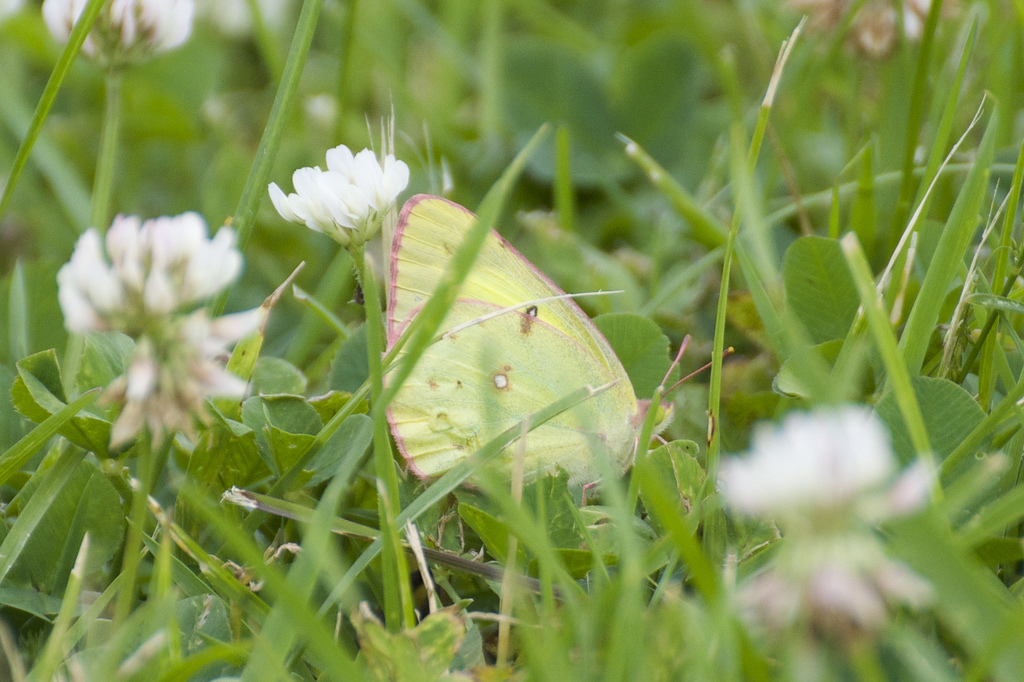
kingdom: Animalia
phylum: Arthropoda
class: Insecta
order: Lepidoptera
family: Pieridae
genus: Colias
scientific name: Colias philodice
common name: Clouded sulphur
